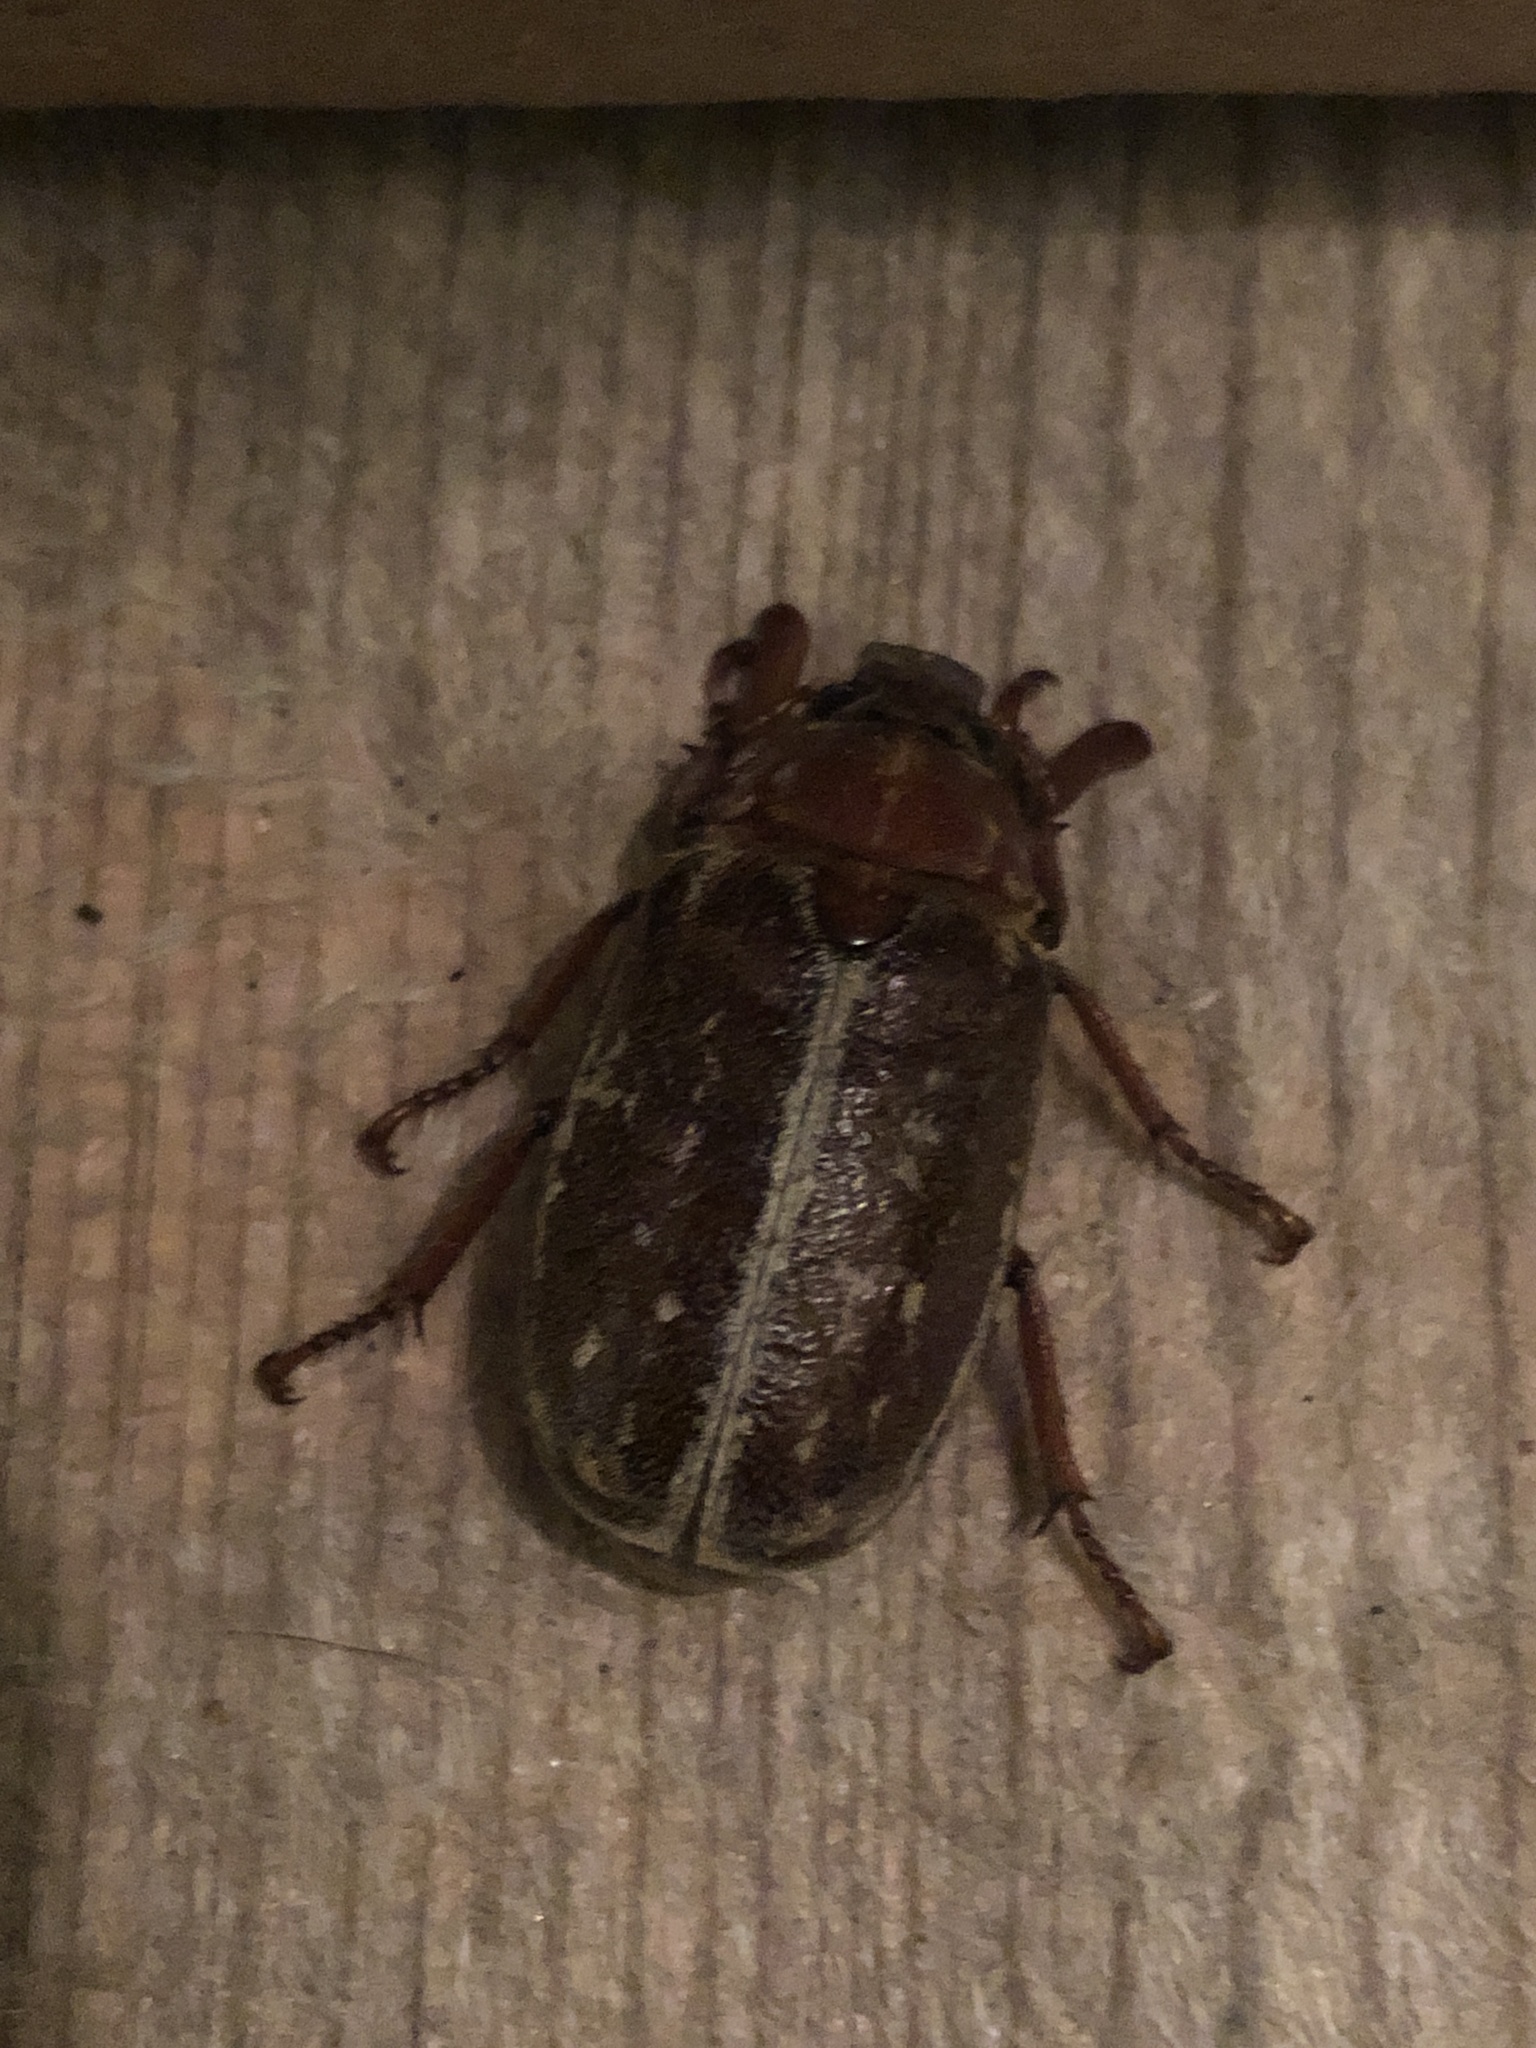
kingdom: Animalia
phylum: Arthropoda
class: Insecta
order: Coleoptera
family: Scarabaeidae
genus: Polyphylla
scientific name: Polyphylla variolosa
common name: Variegated june beetle
